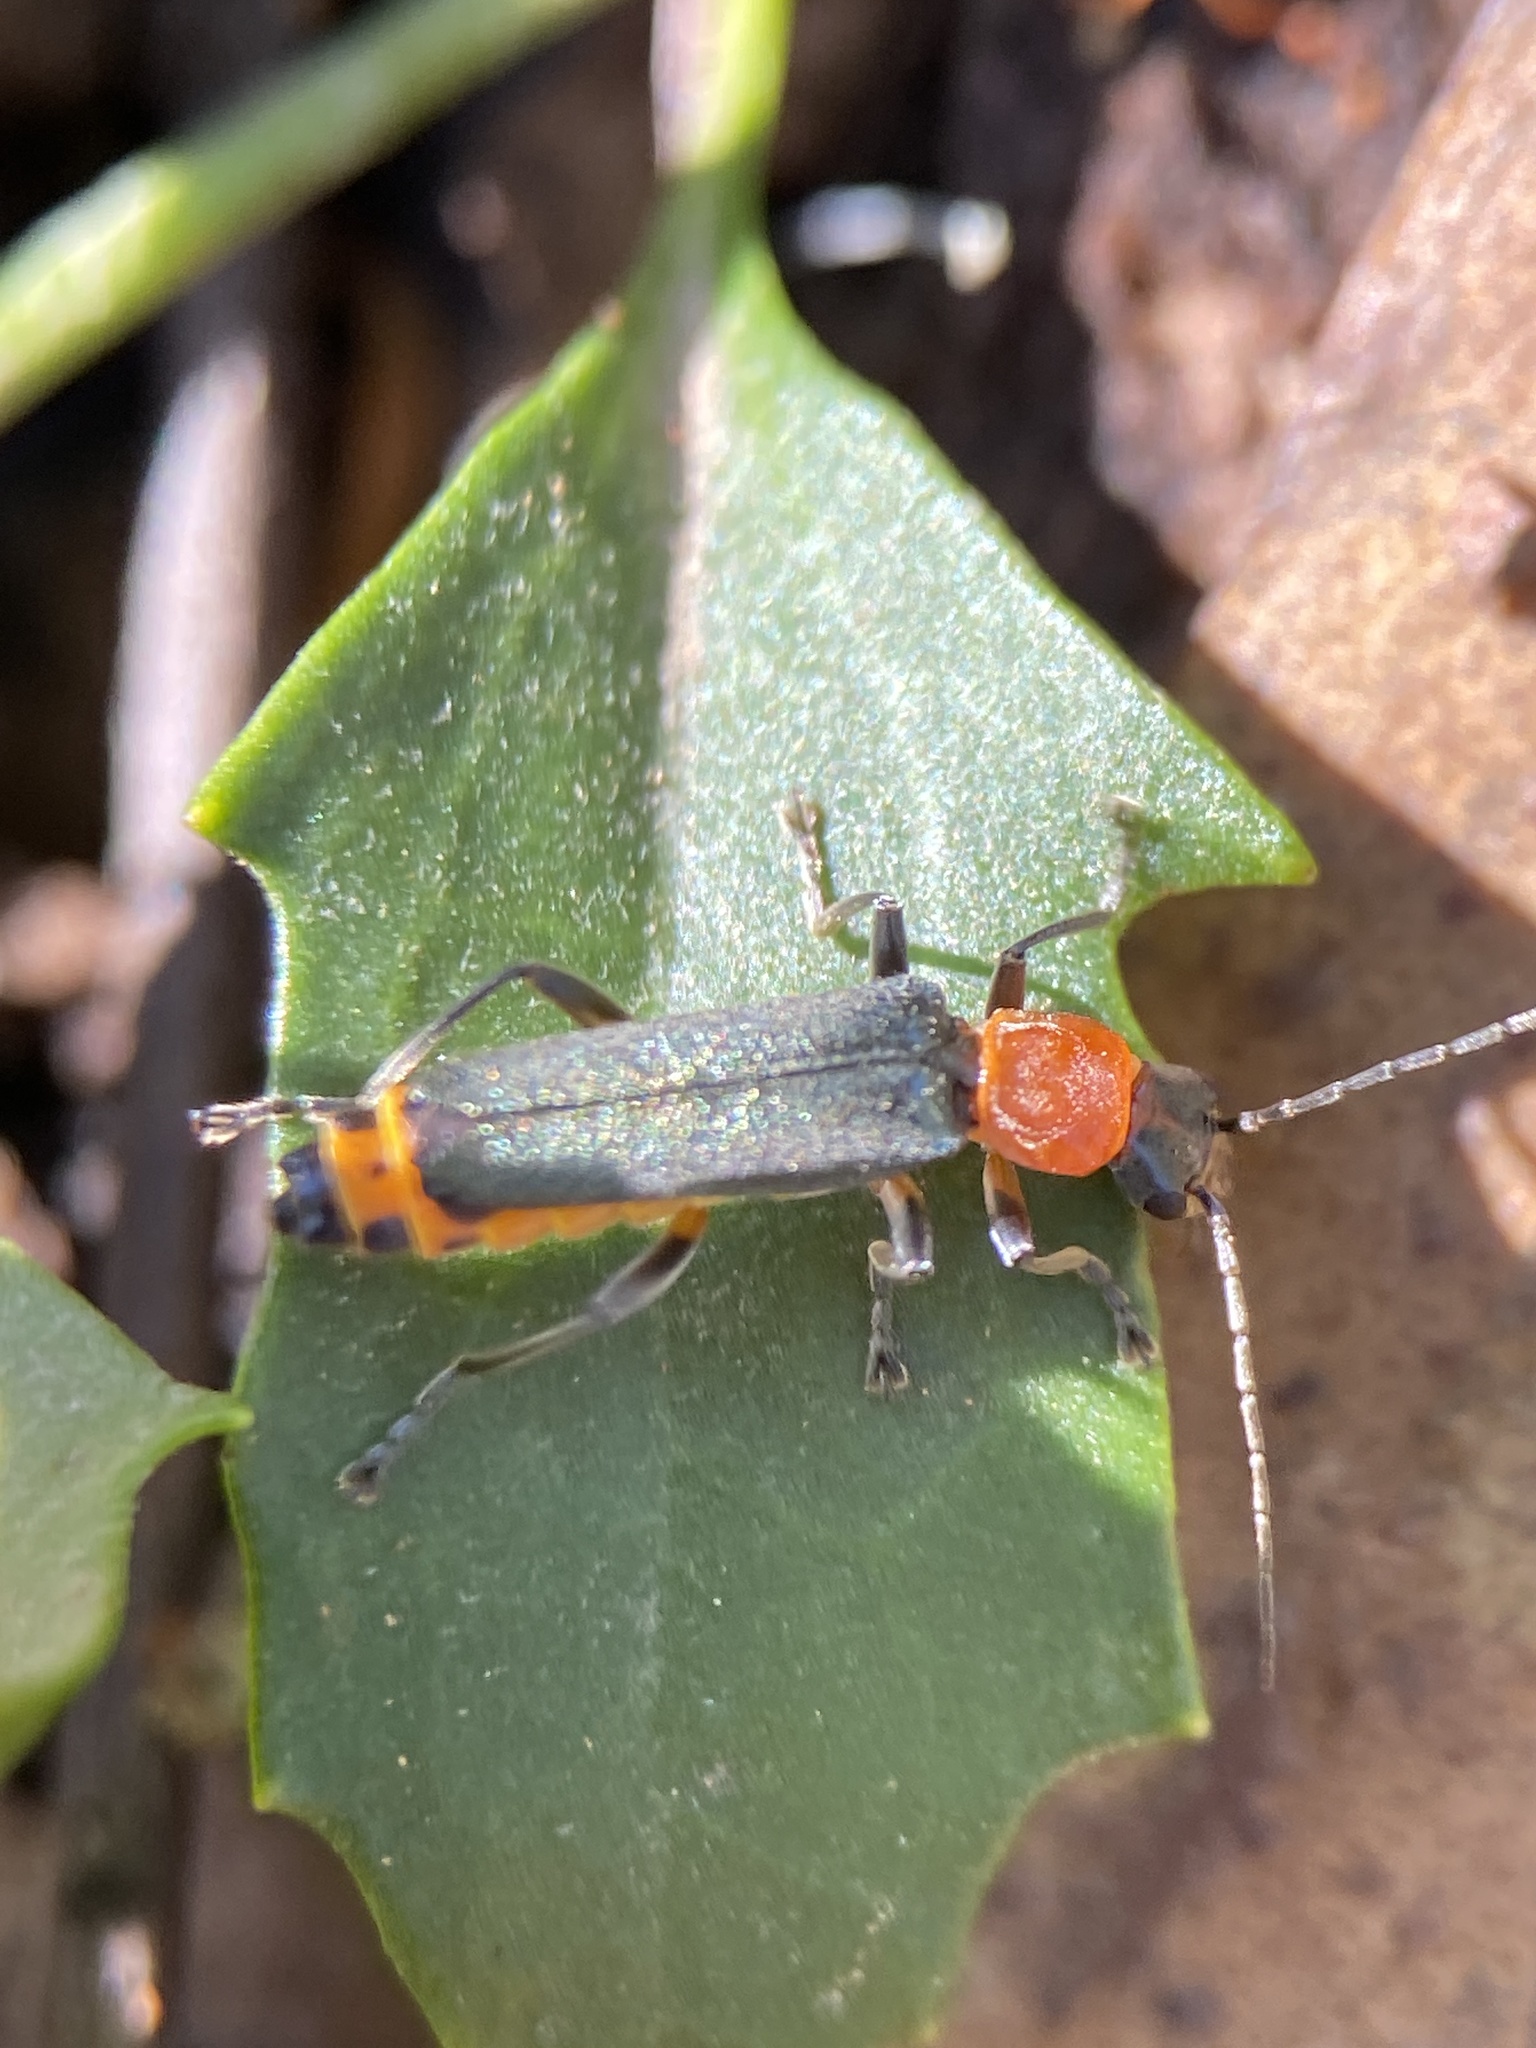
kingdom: Animalia
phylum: Arthropoda
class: Insecta
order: Coleoptera
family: Cantharidae
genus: Chauliognathus
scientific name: Chauliognathus
